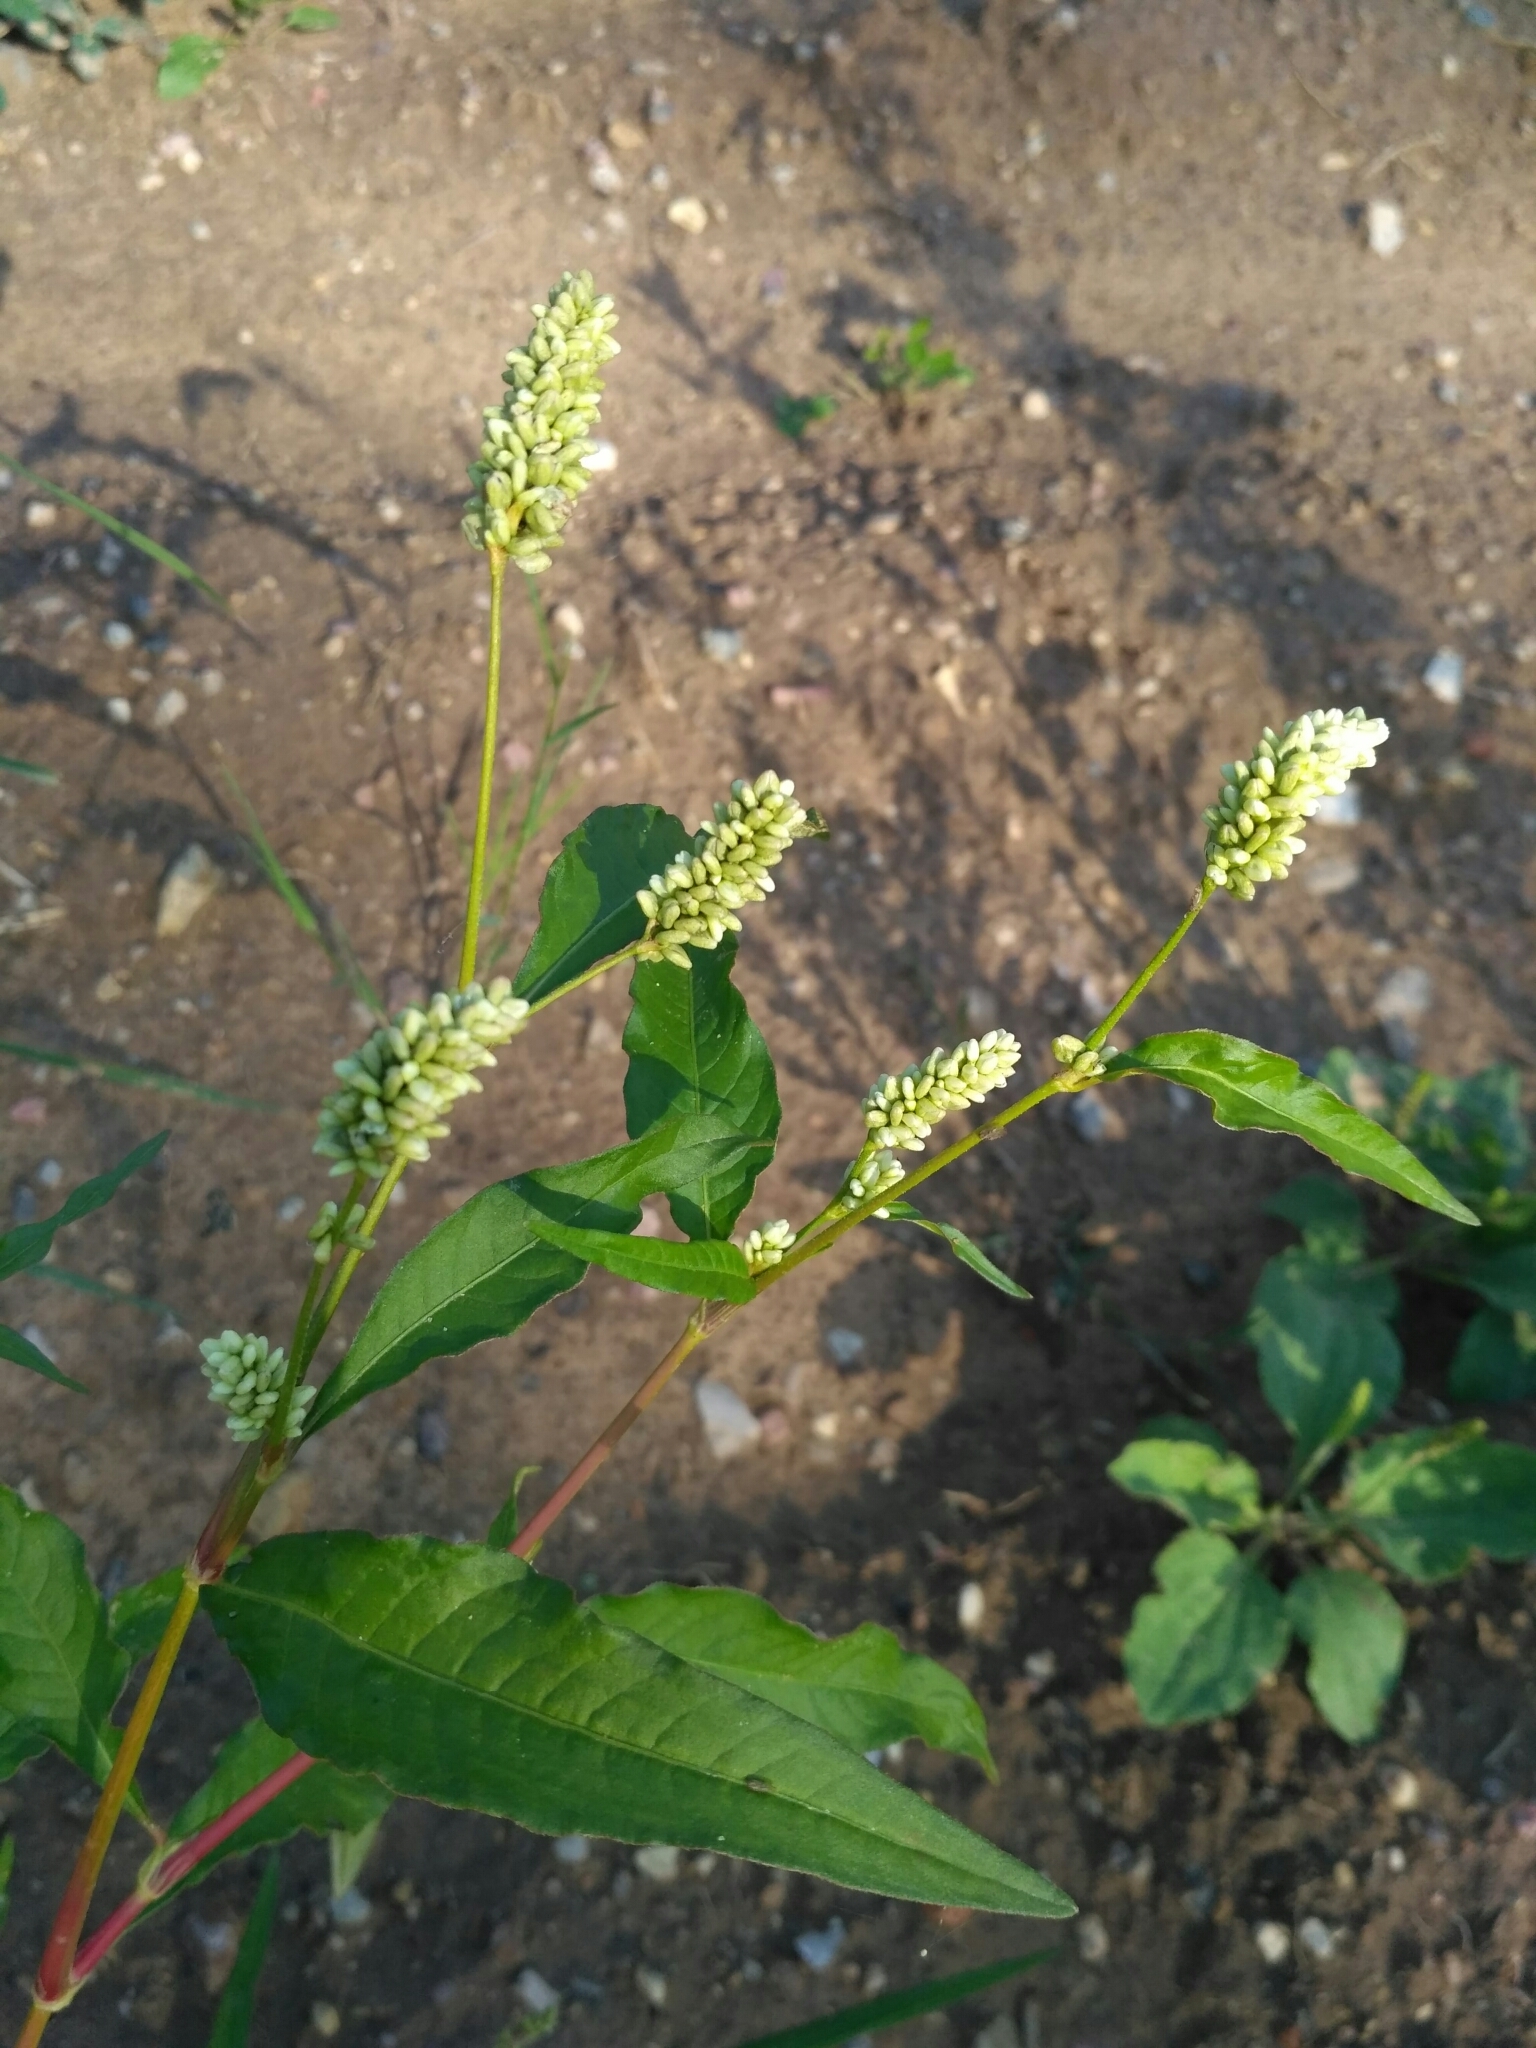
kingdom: Plantae
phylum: Tracheophyta
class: Magnoliopsida
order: Caryophyllales
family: Polygonaceae
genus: Persicaria
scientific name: Persicaria lapathifolia
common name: Curlytop knotweed
